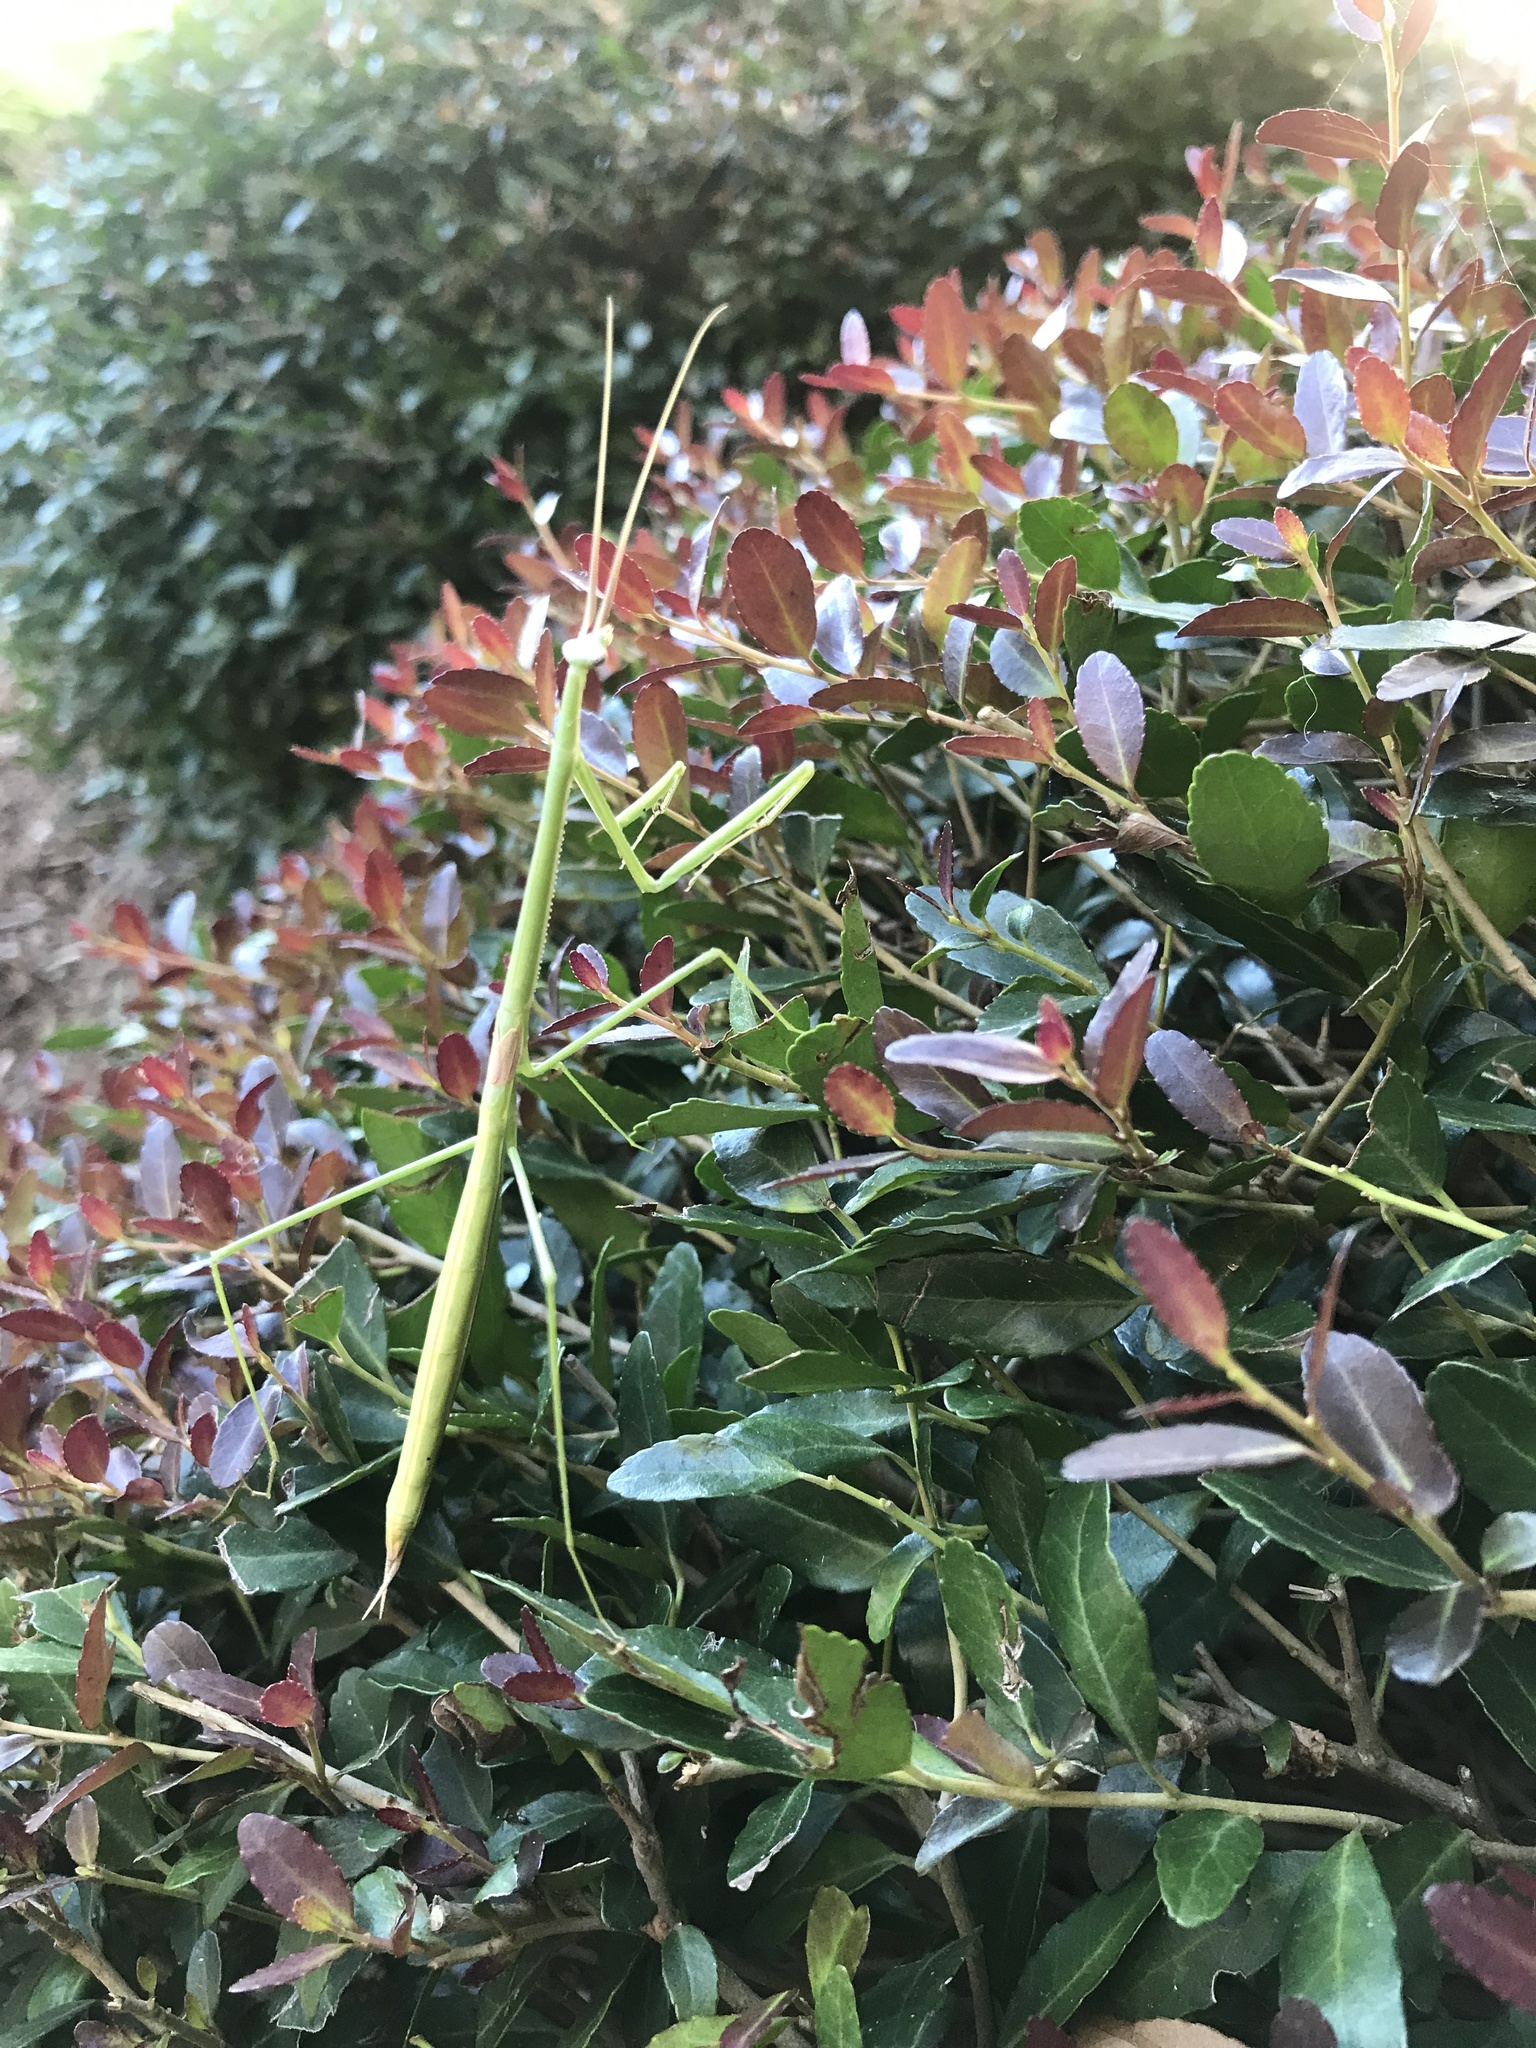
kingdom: Animalia
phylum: Arthropoda
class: Insecta
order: Mantodea
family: Coptopterygidae
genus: Brunneria
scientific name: Brunneria borealis
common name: Mantis
